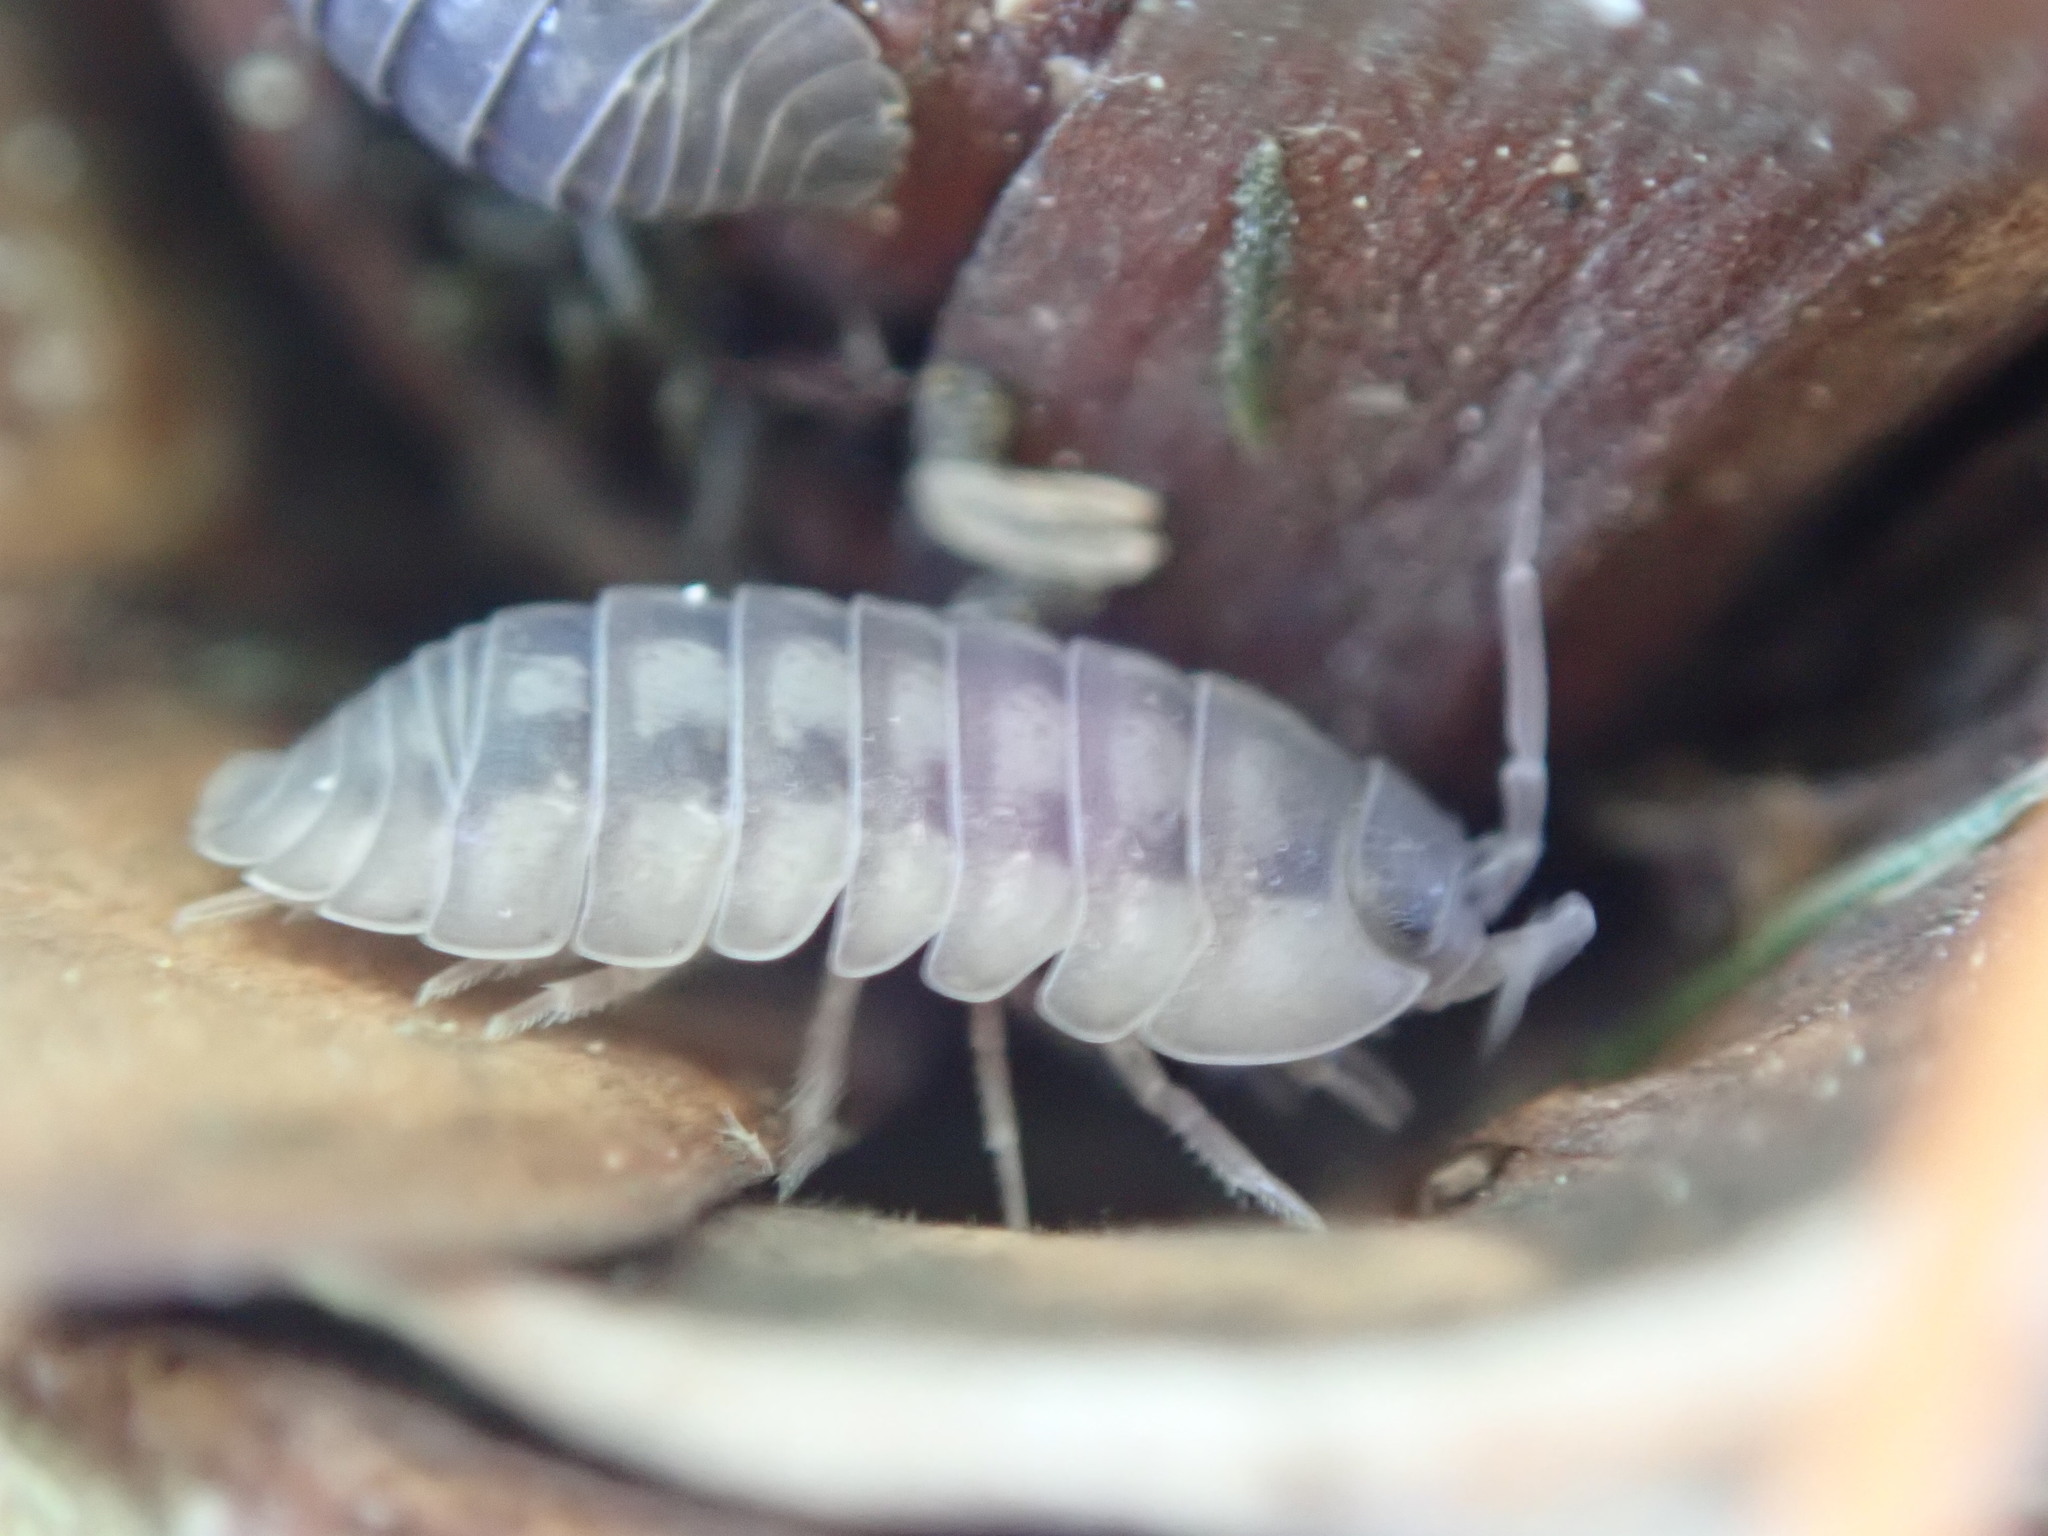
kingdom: Animalia
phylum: Arthropoda
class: Malacostraca
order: Isopoda
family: Armadillidiidae
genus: Armadillidium
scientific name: Armadillidium nasatum
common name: Isopod
